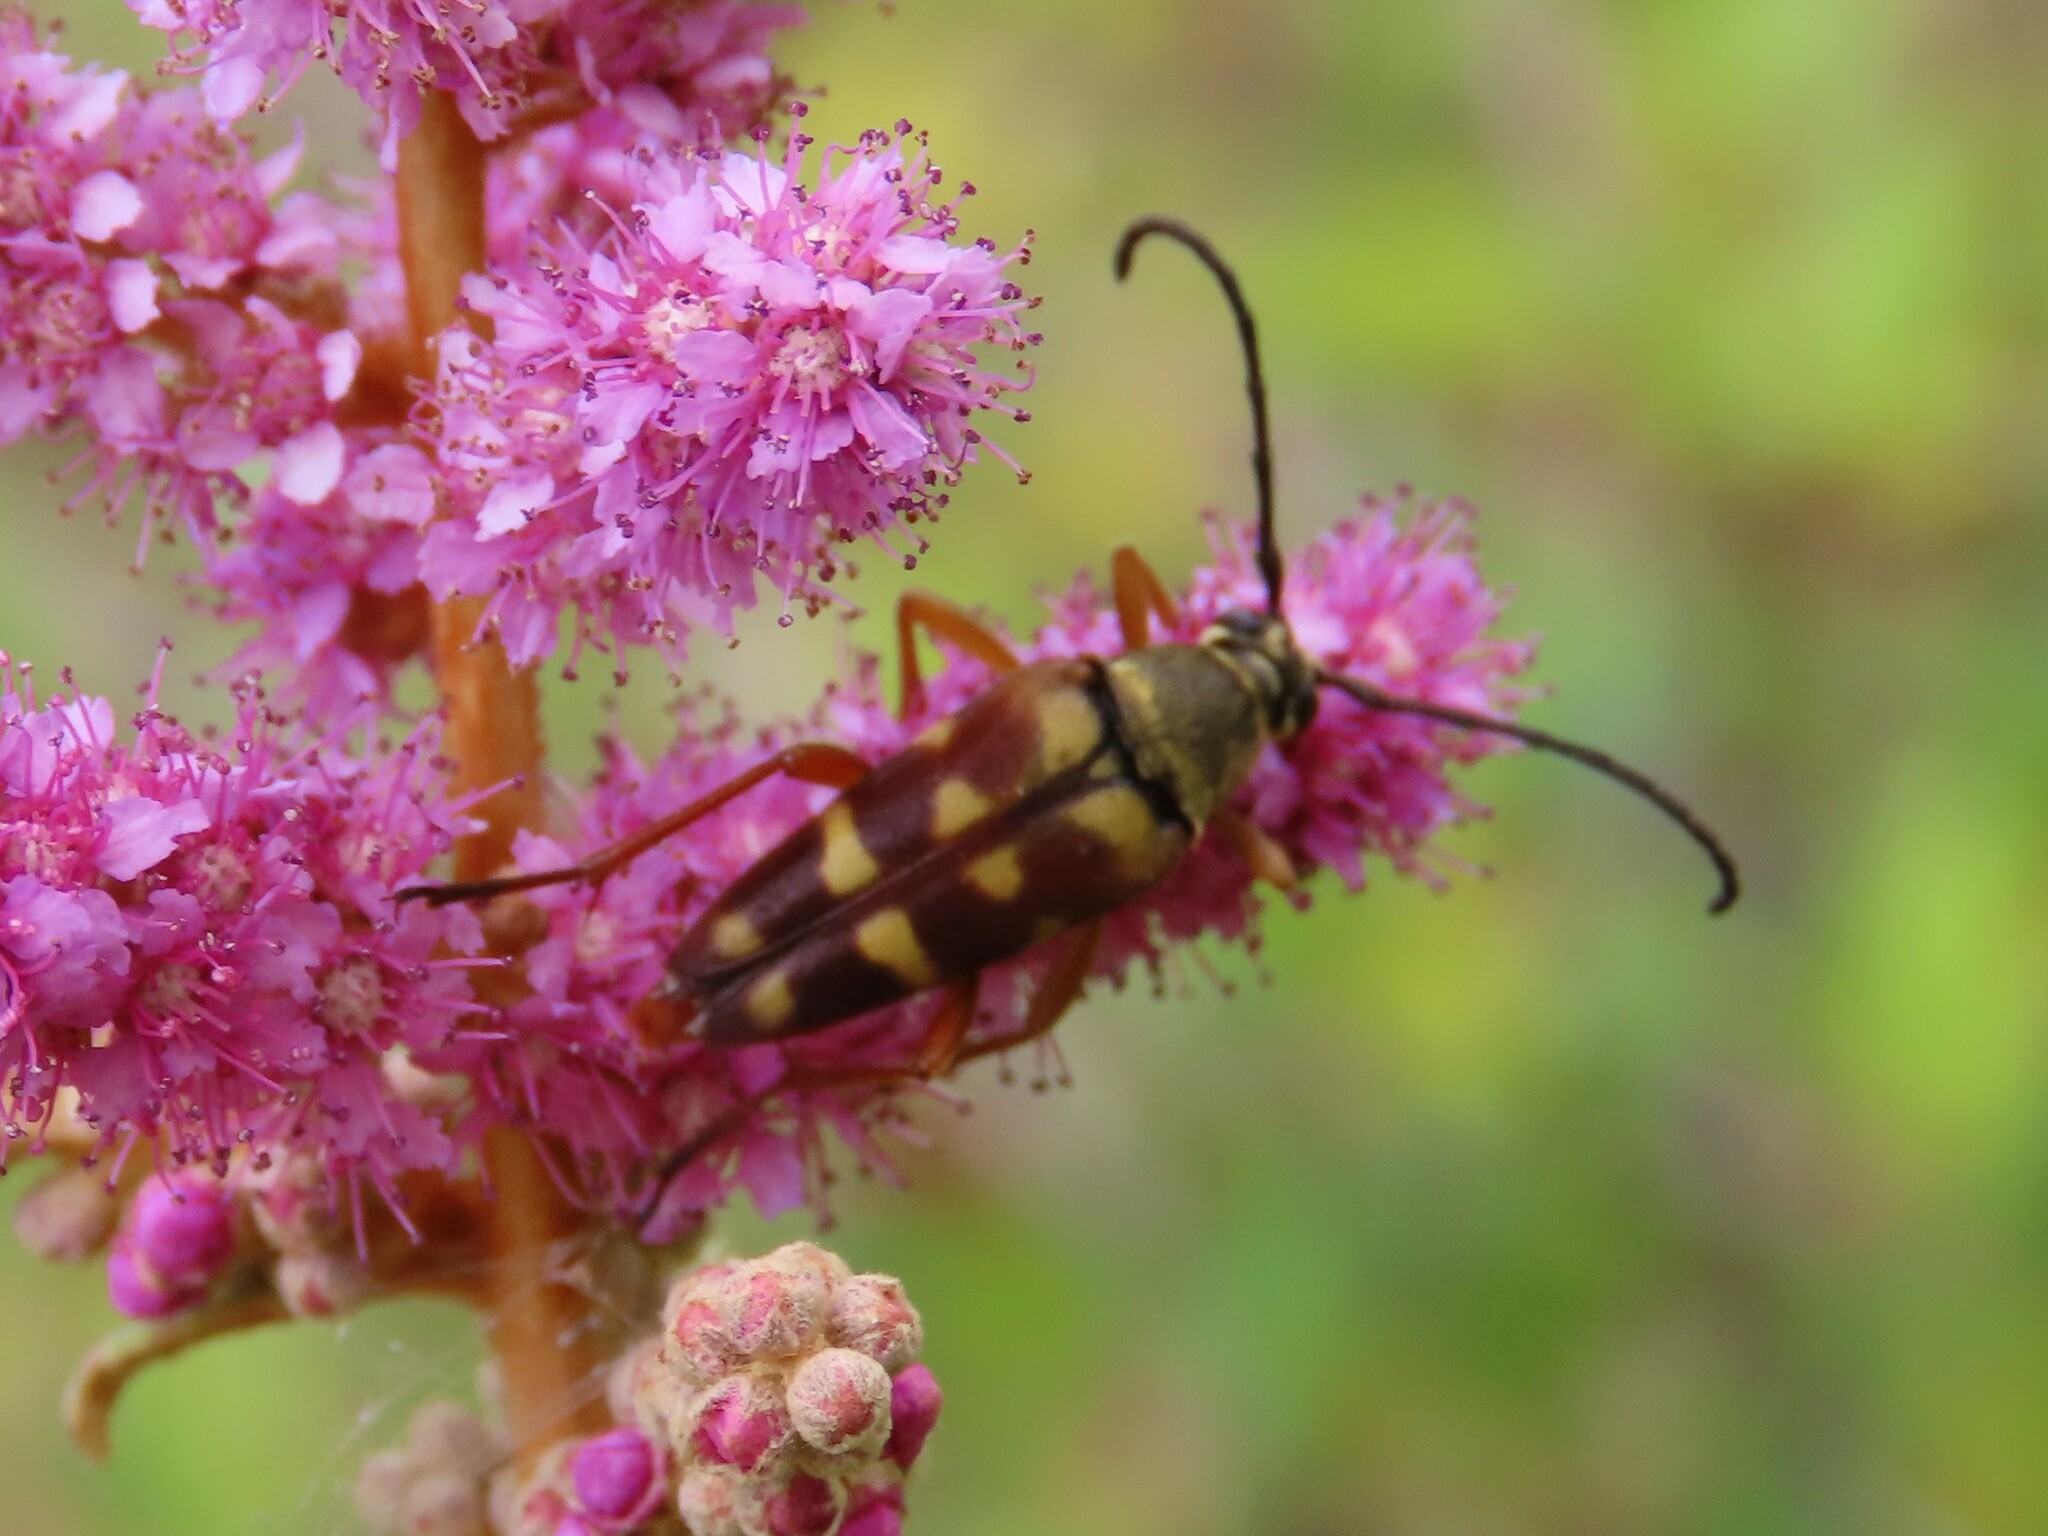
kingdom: Animalia
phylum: Arthropoda
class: Insecta
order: Coleoptera
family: Cerambycidae
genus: Typocerus
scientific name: Typocerus velutinus
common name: Banded longhorn beetle
